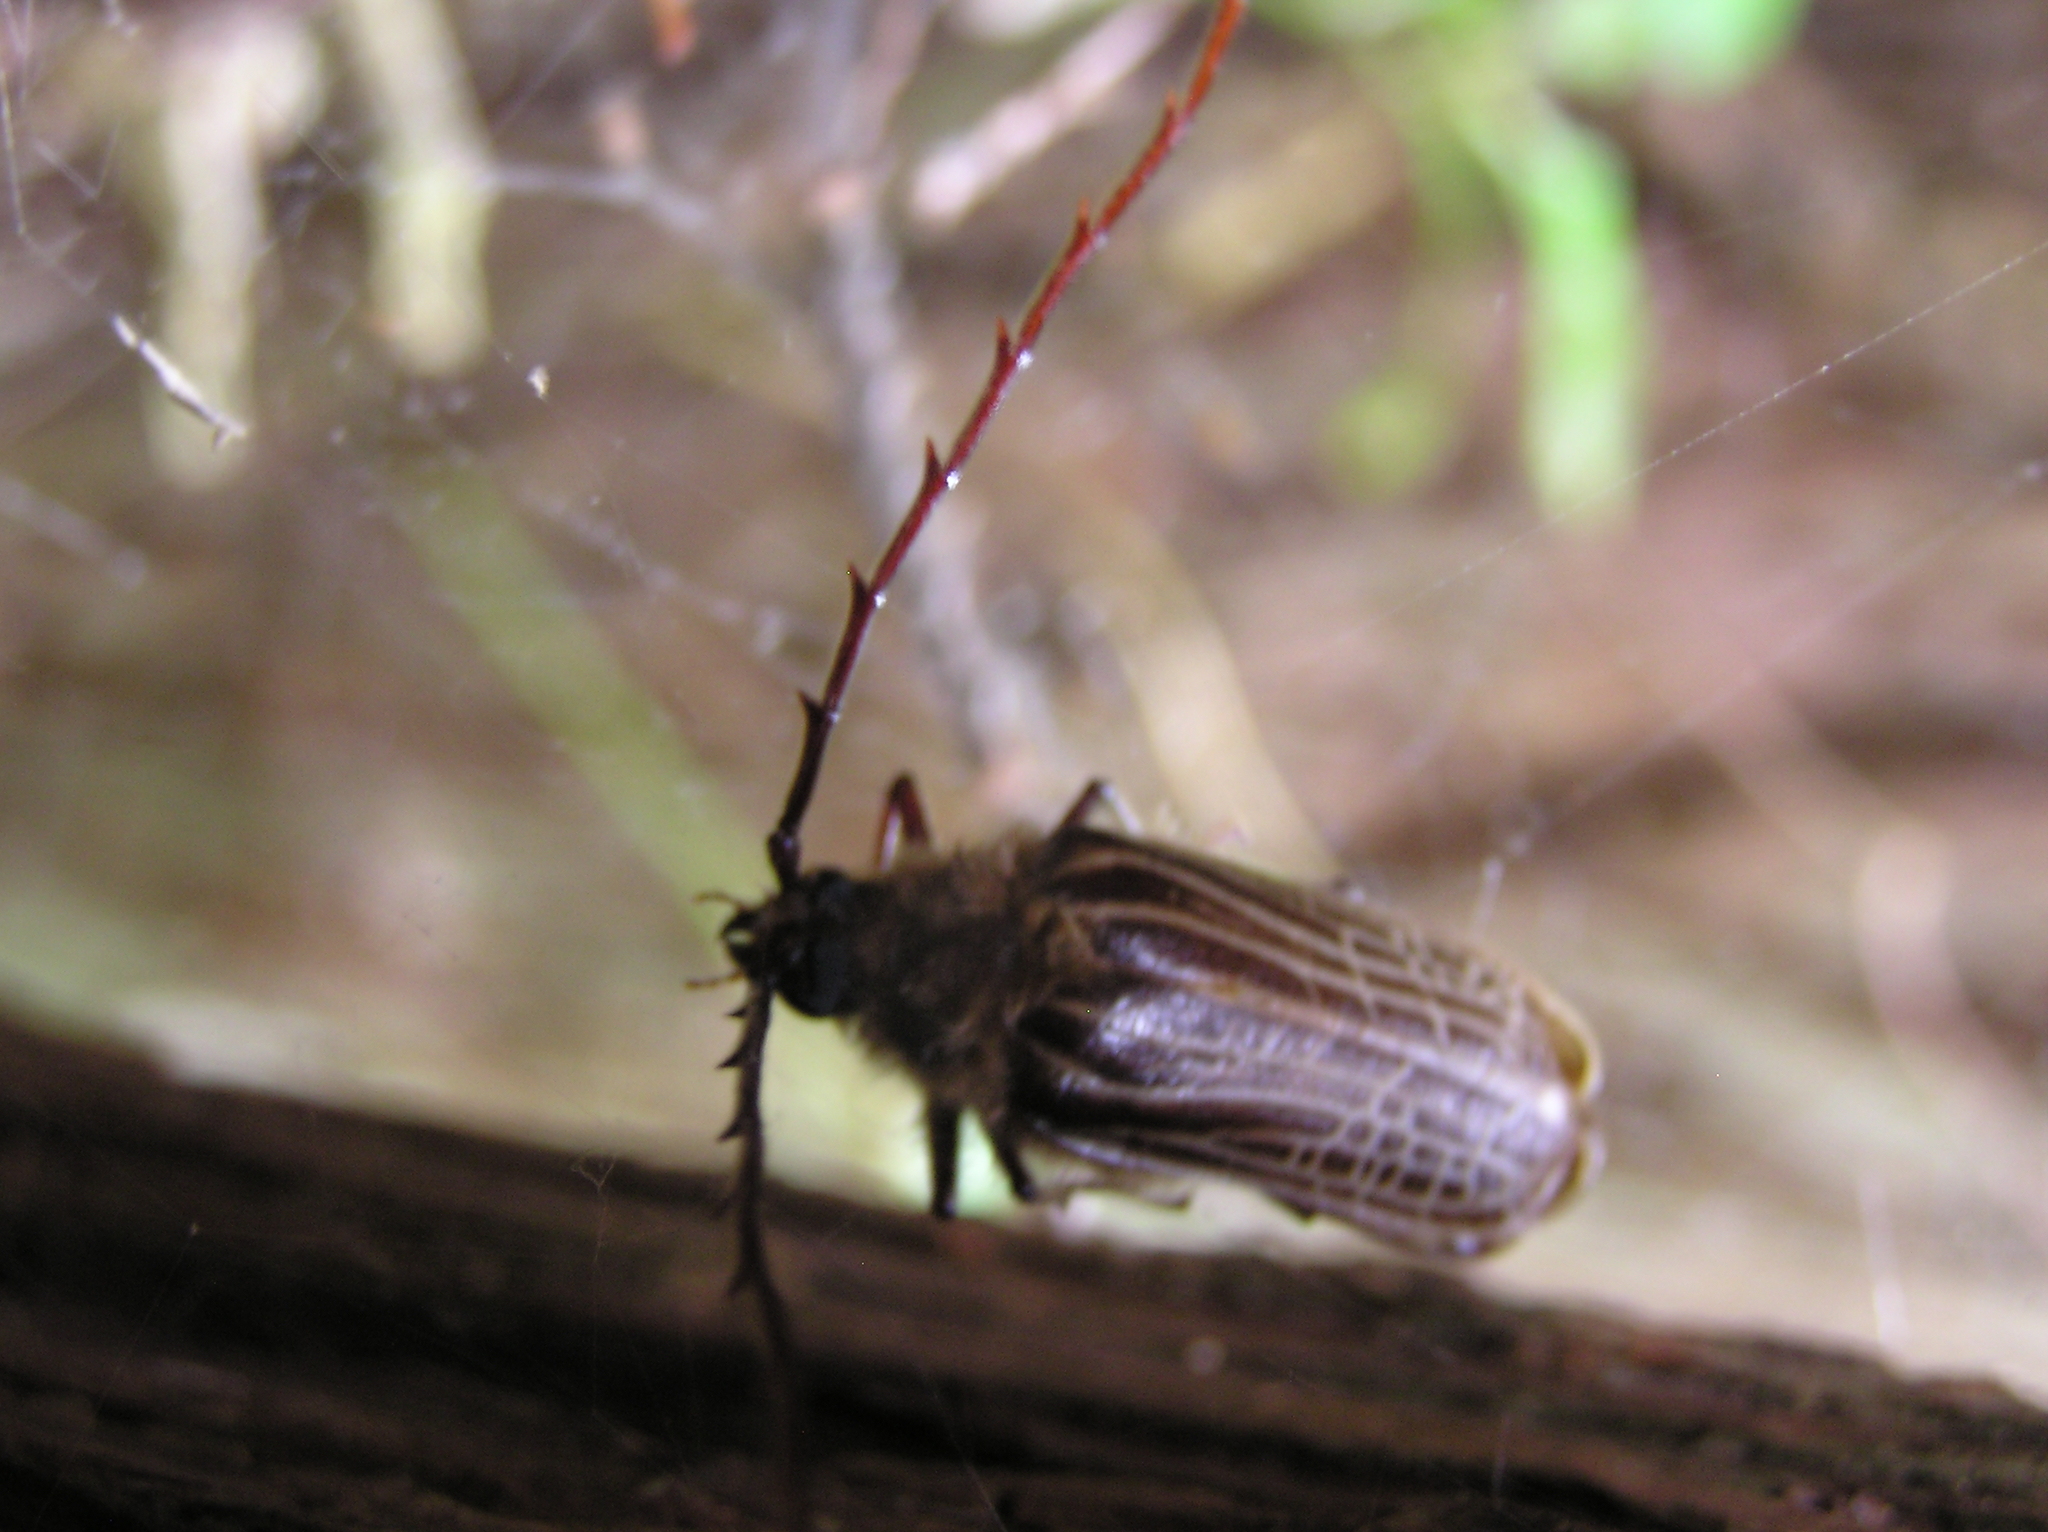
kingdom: Animalia
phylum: Arthropoda
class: Insecta
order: Coleoptera
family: Cerambycidae
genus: Prionoplus
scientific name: Prionoplus reticularis
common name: Huhu beetle
